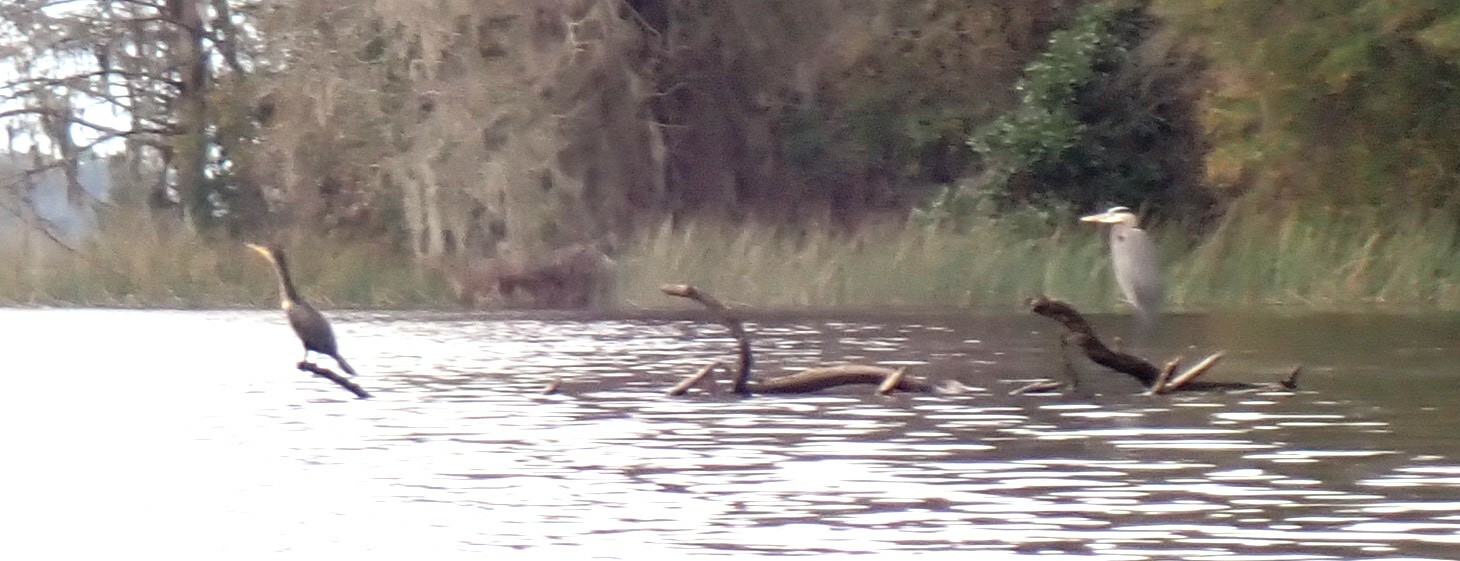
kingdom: Animalia
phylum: Chordata
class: Aves
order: Suliformes
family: Phalacrocoracidae
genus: Phalacrocorax
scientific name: Phalacrocorax auritus
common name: Double-crested cormorant
